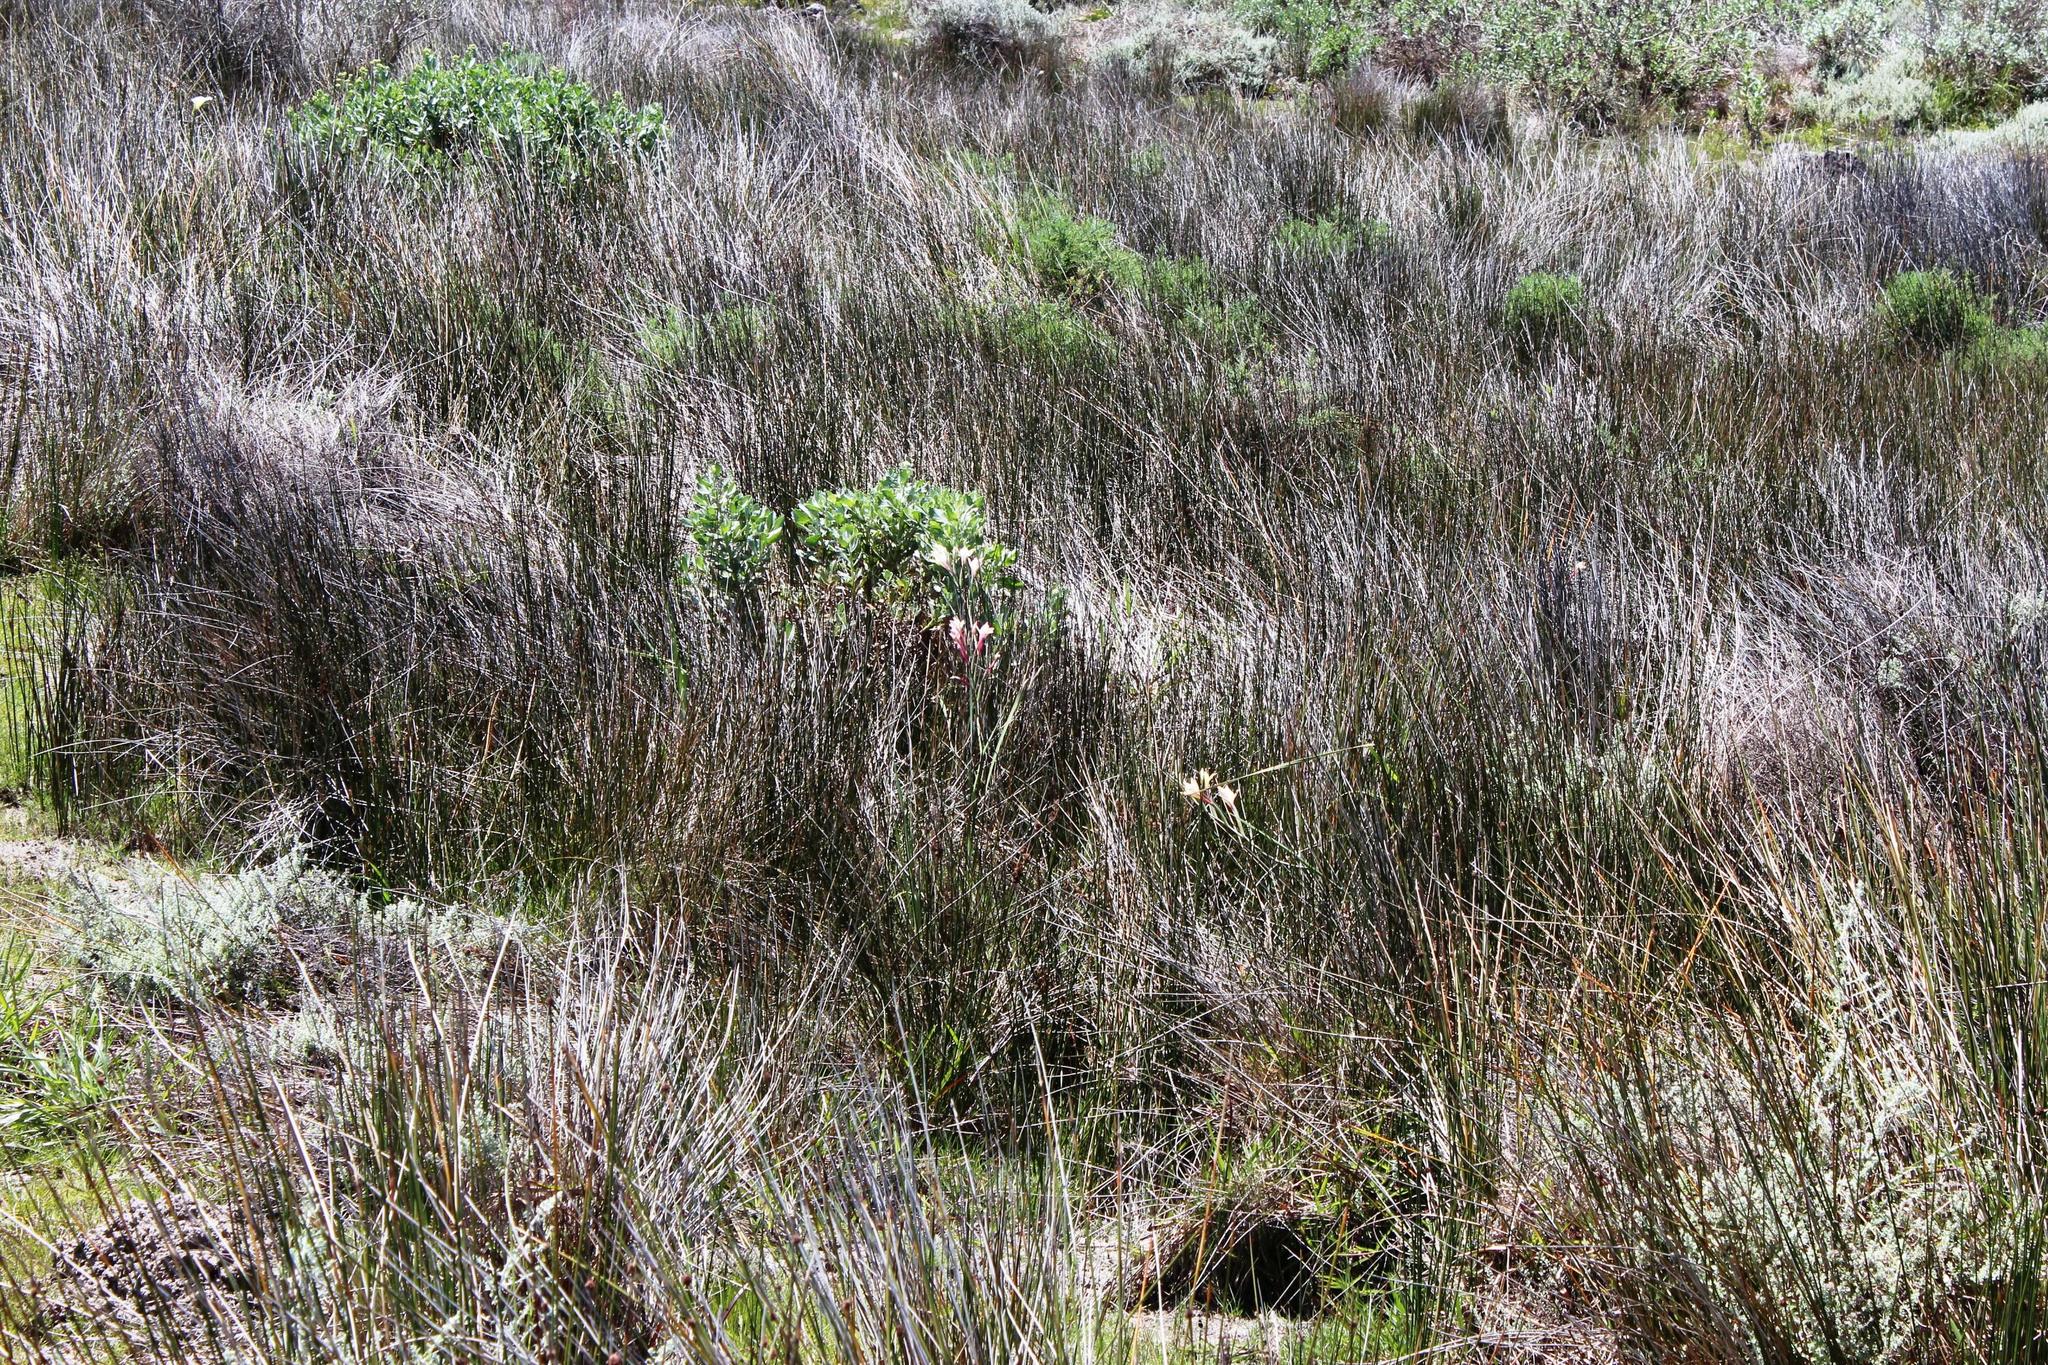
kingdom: Plantae
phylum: Tracheophyta
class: Liliopsida
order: Asparagales
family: Iridaceae
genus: Gladiolus
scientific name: Gladiolus angustus
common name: Painted-lady
